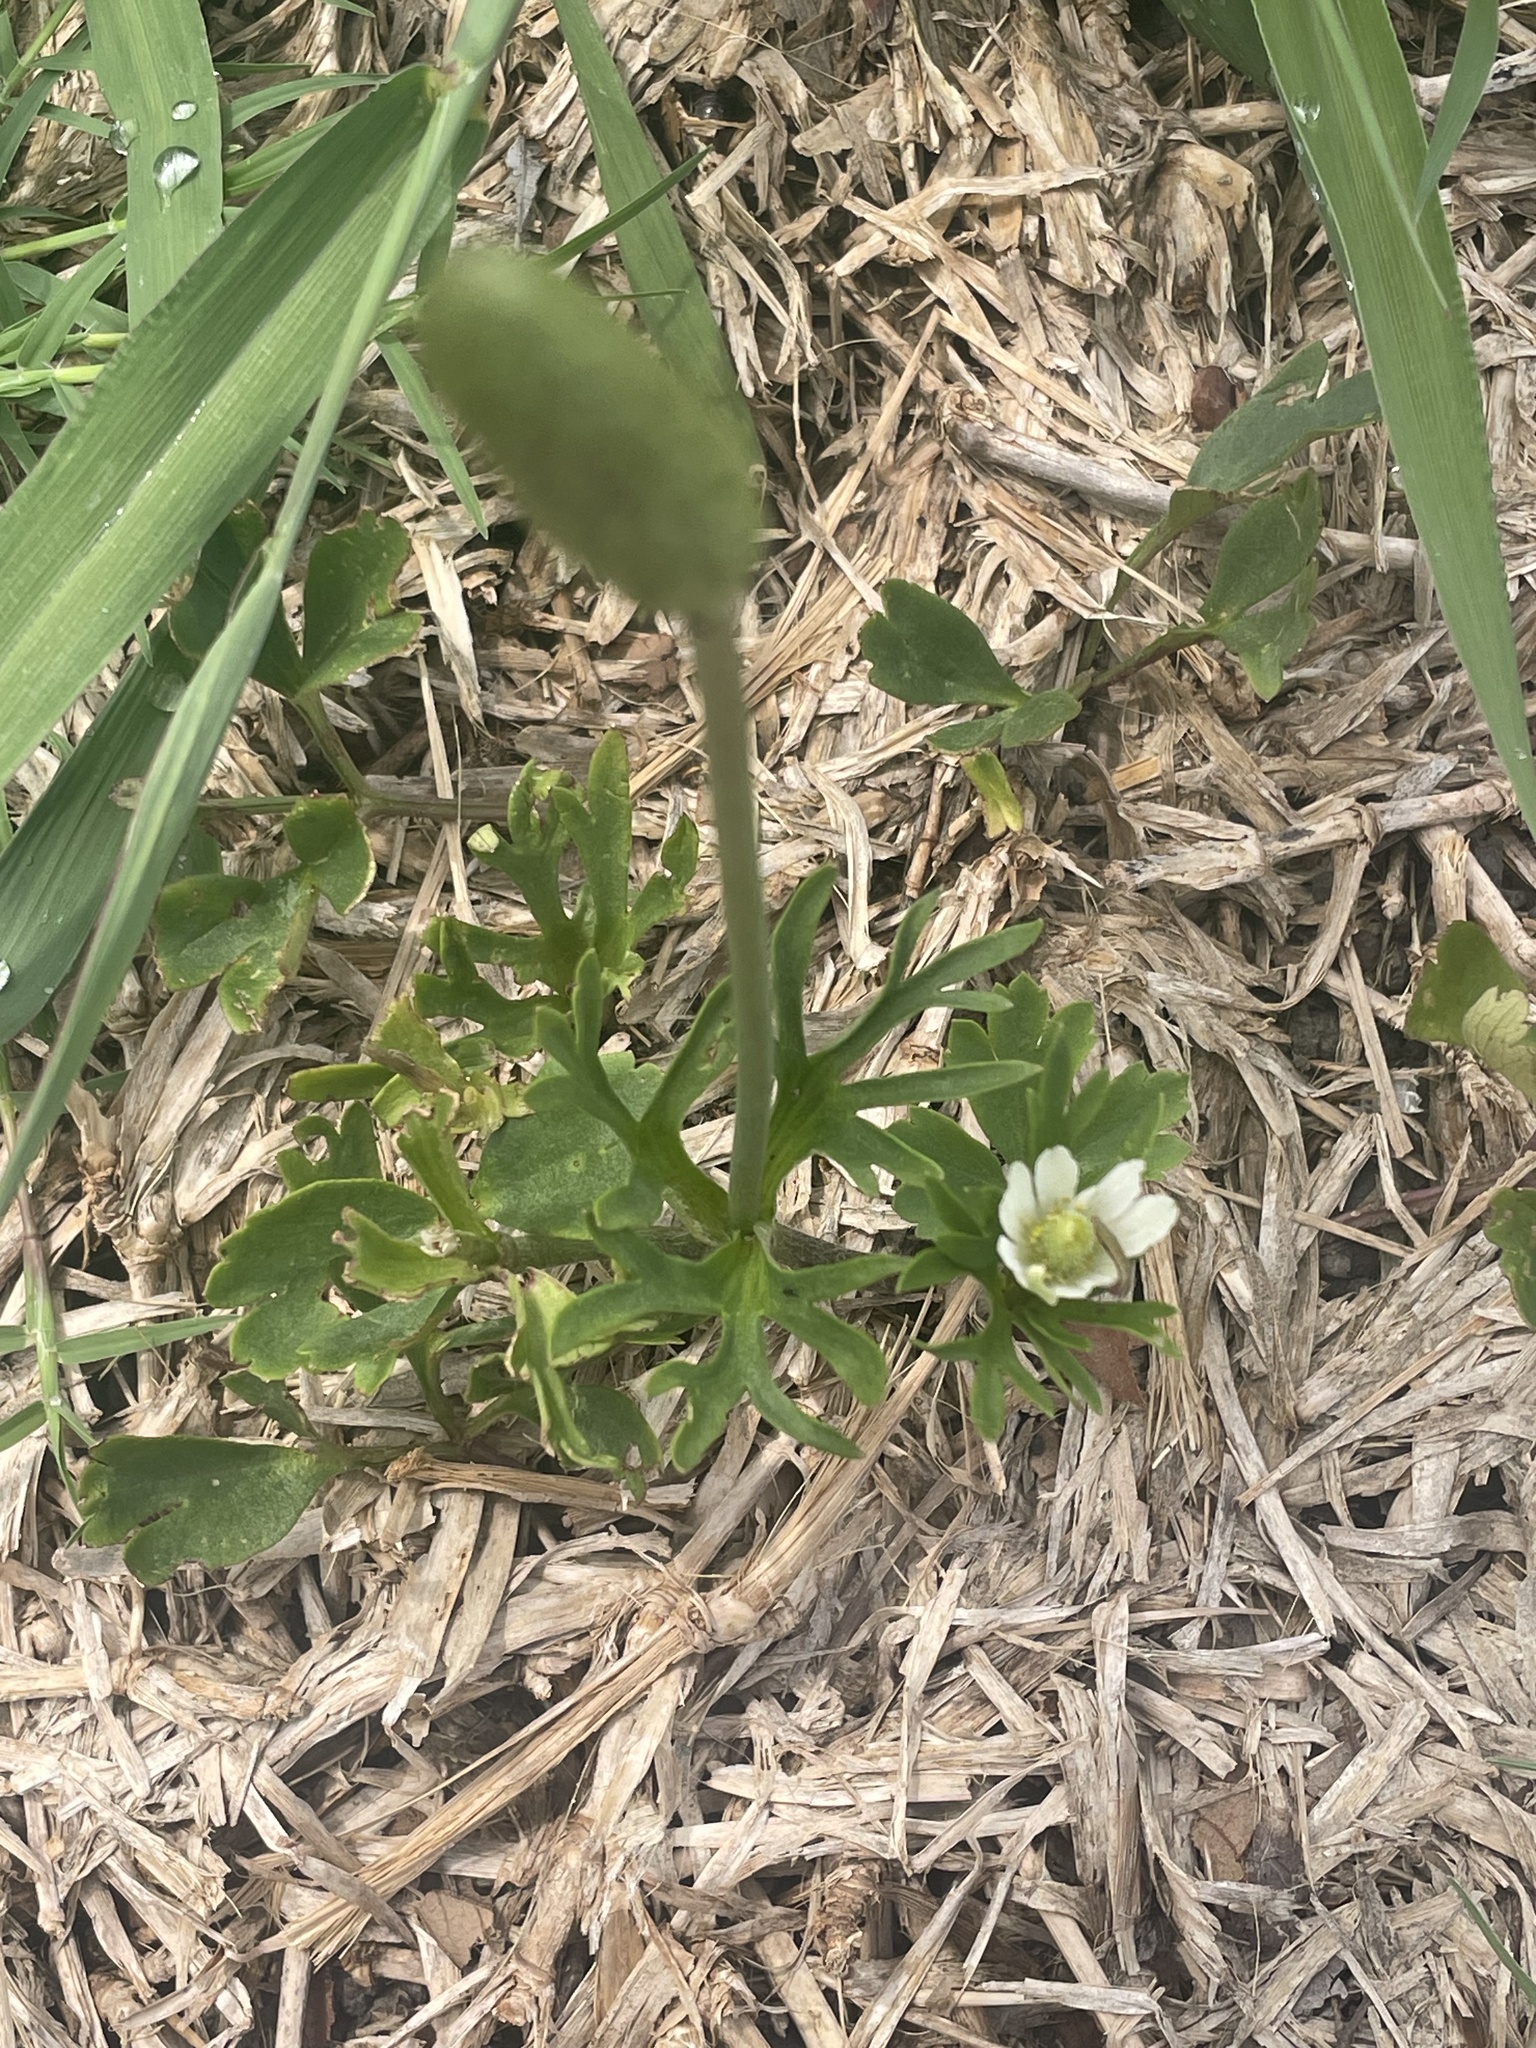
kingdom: Plantae
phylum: Tracheophyta
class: Magnoliopsida
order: Ranunculales
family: Ranunculaceae
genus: Anemone
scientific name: Anemone berlandieri
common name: Ten-petal anemone
